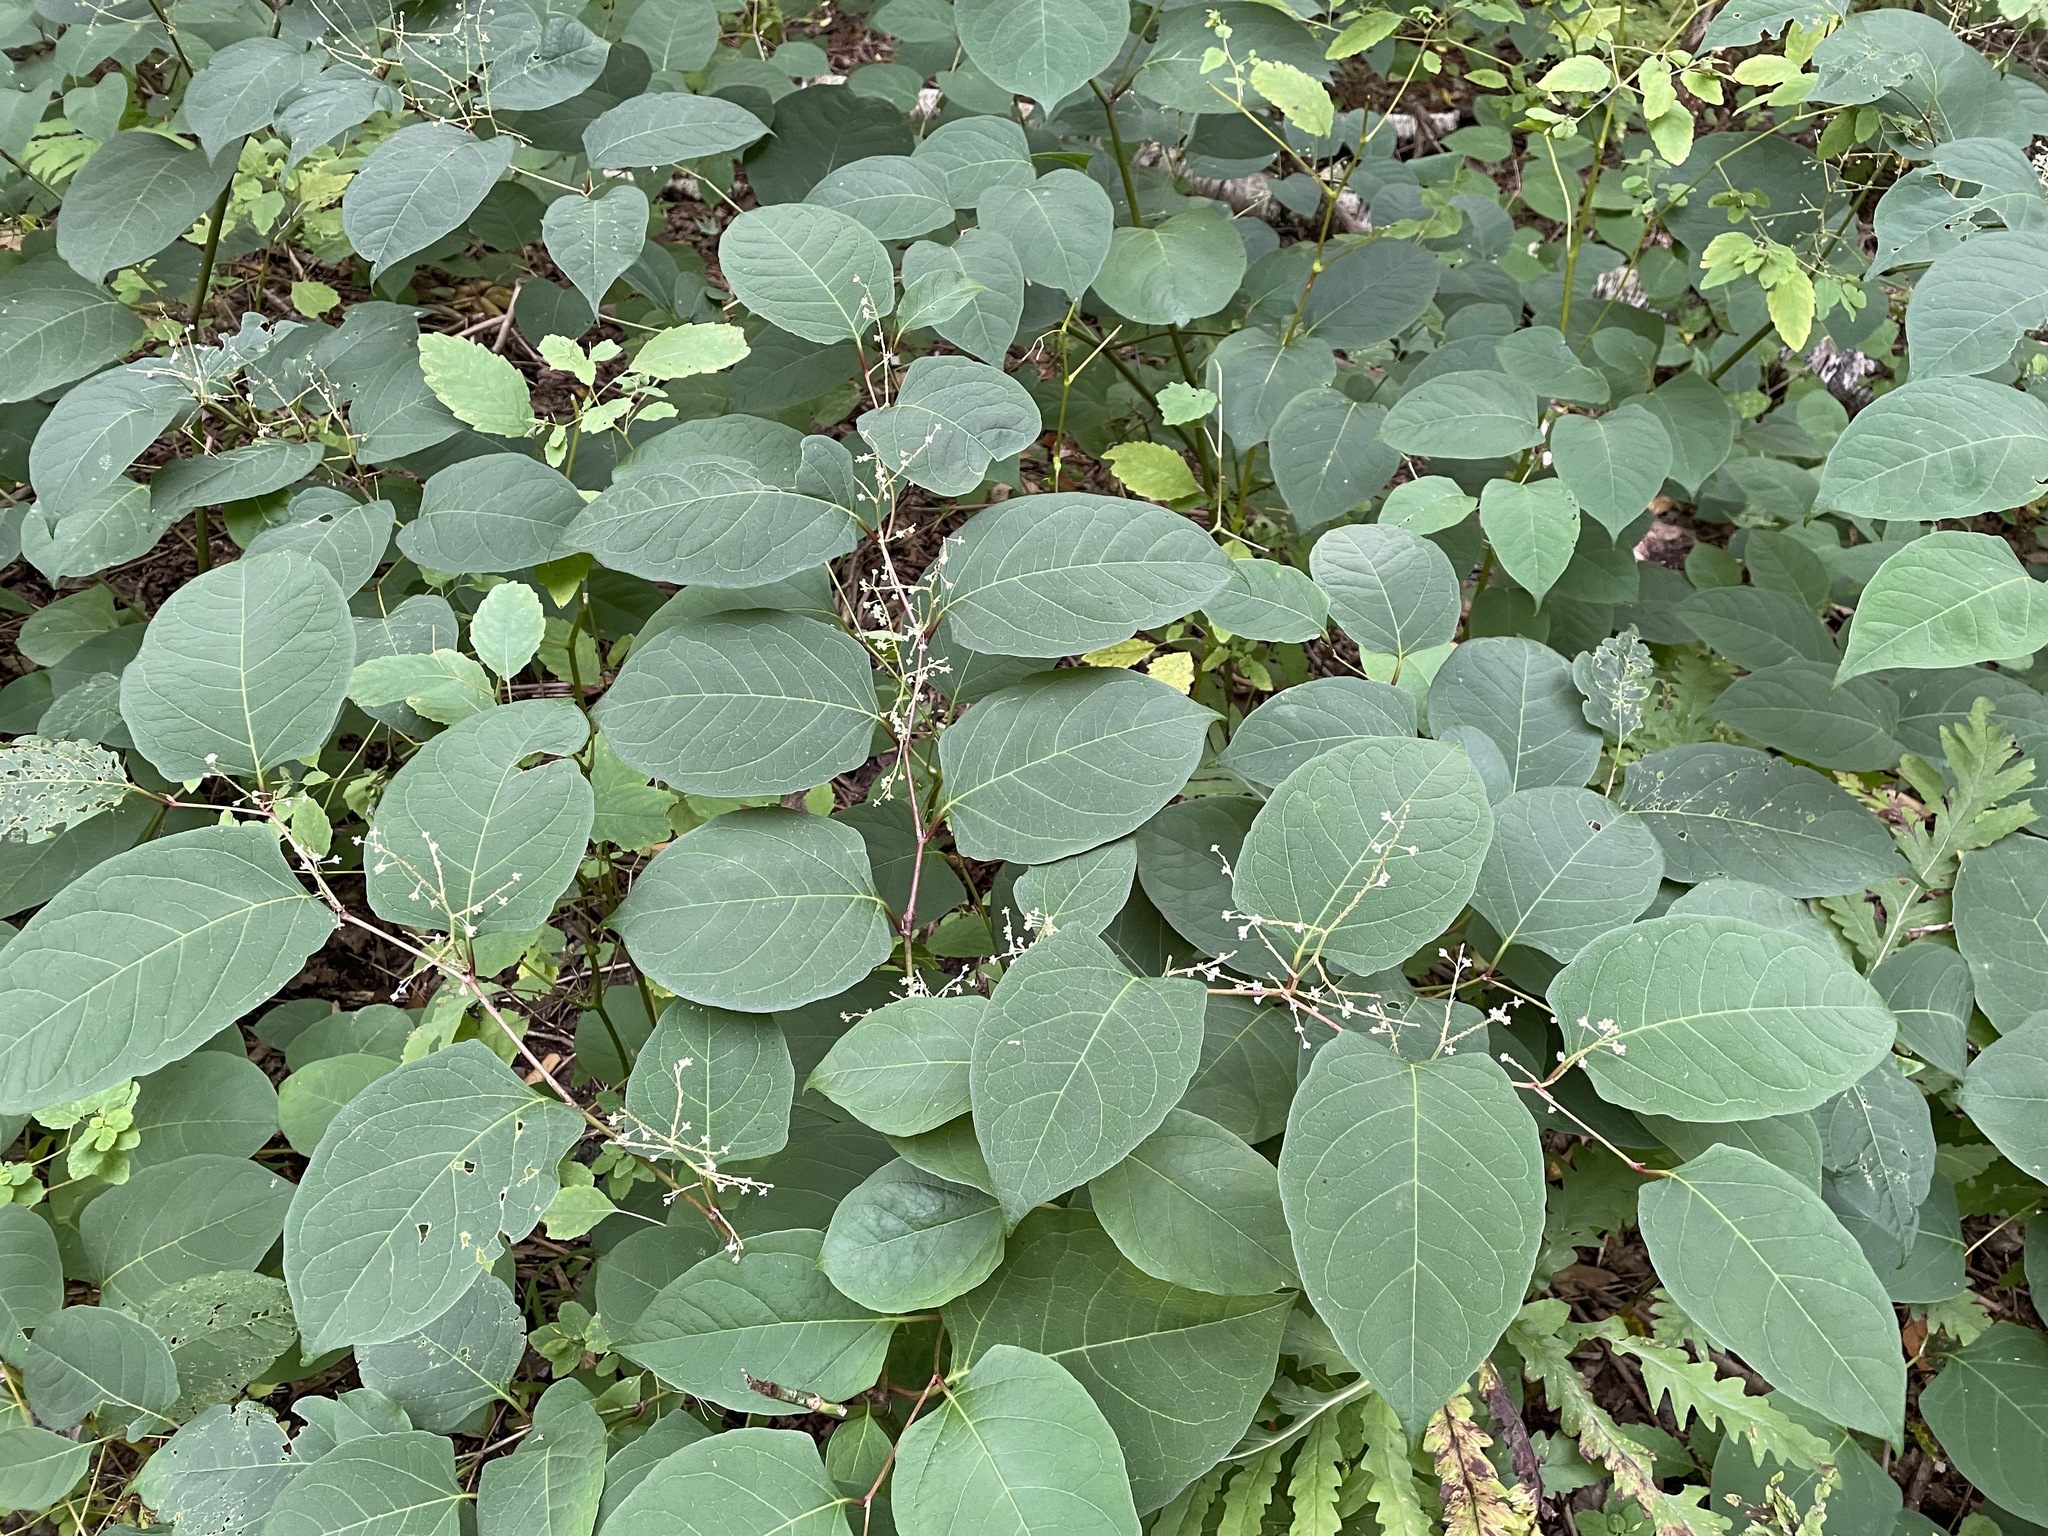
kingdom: Plantae
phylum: Tracheophyta
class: Magnoliopsida
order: Caryophyllales
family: Polygonaceae
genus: Reynoutria
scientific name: Reynoutria japonica
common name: Japanese knotweed
